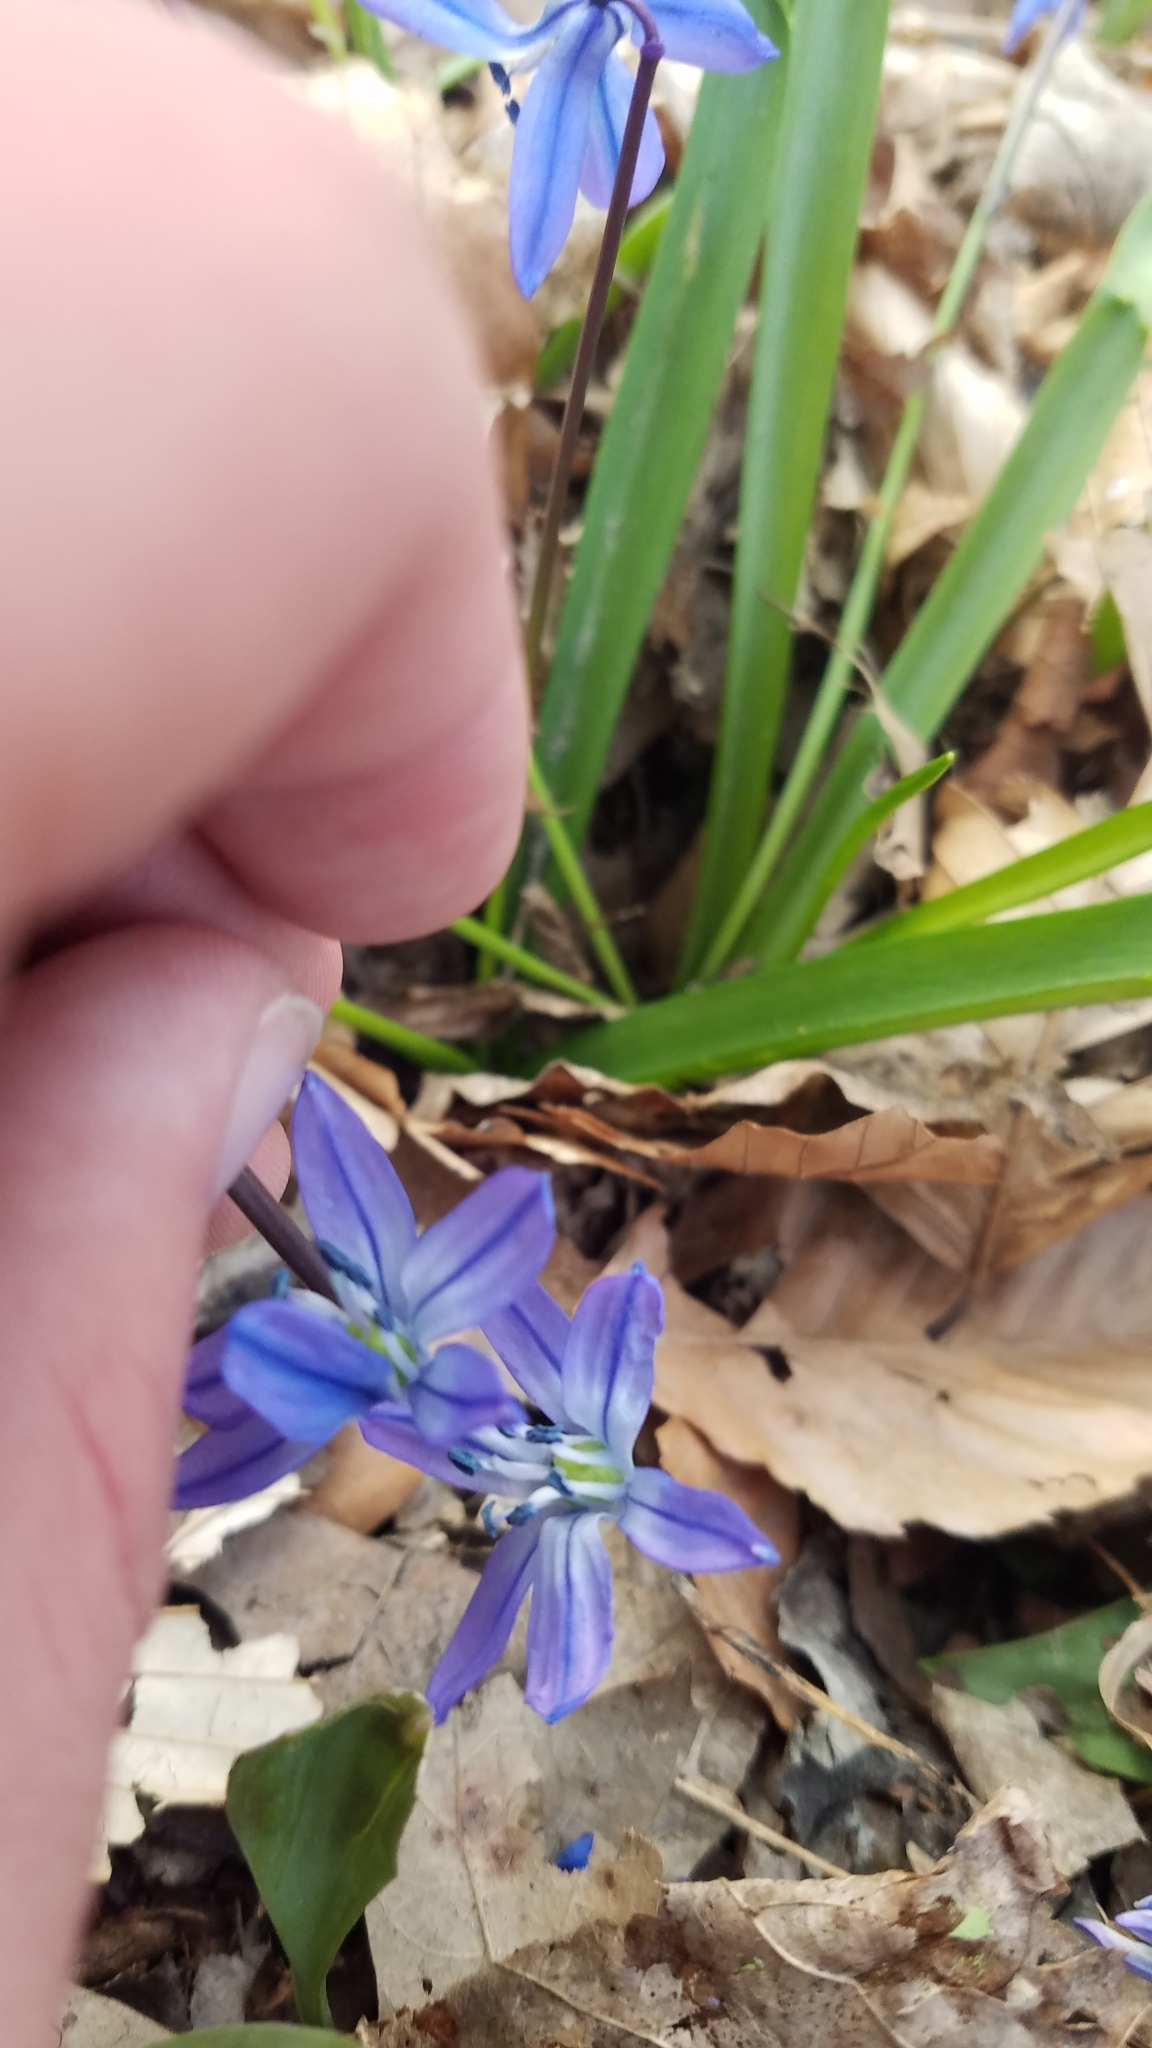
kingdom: Plantae
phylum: Tracheophyta
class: Liliopsida
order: Asparagales
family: Asparagaceae
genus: Scilla
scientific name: Scilla siberica
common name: Siberian squill
